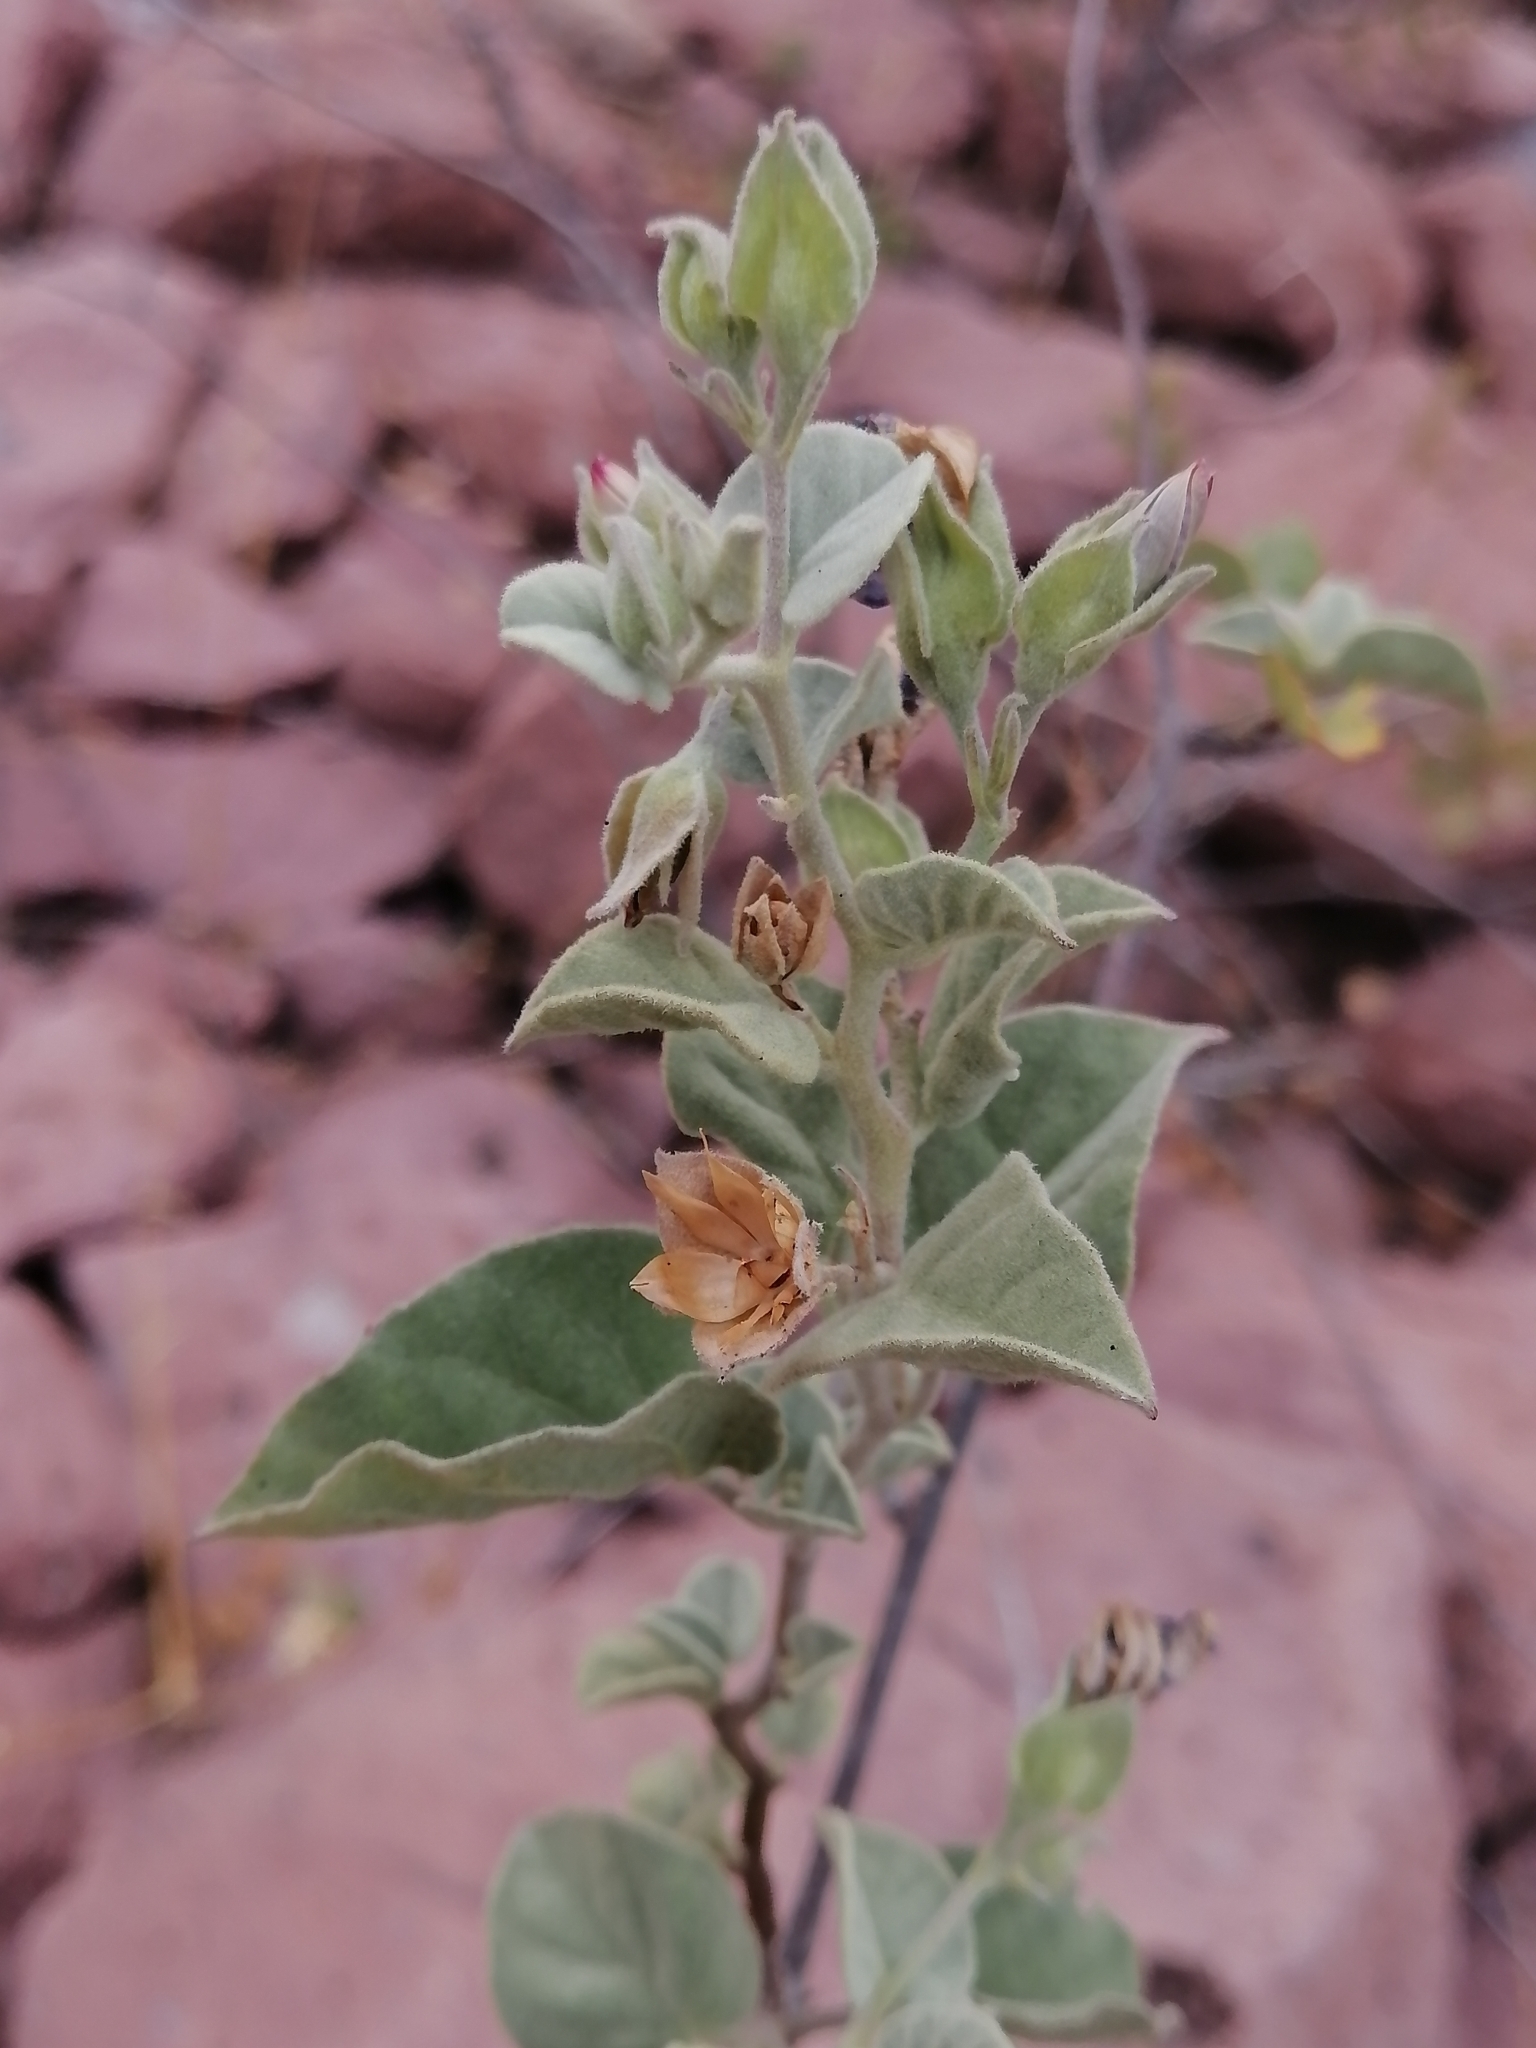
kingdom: Plantae
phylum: Tracheophyta
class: Magnoliopsida
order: Solanales
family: Convolvulaceae
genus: Jacquemontia
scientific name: Jacquemontia abutiloides
